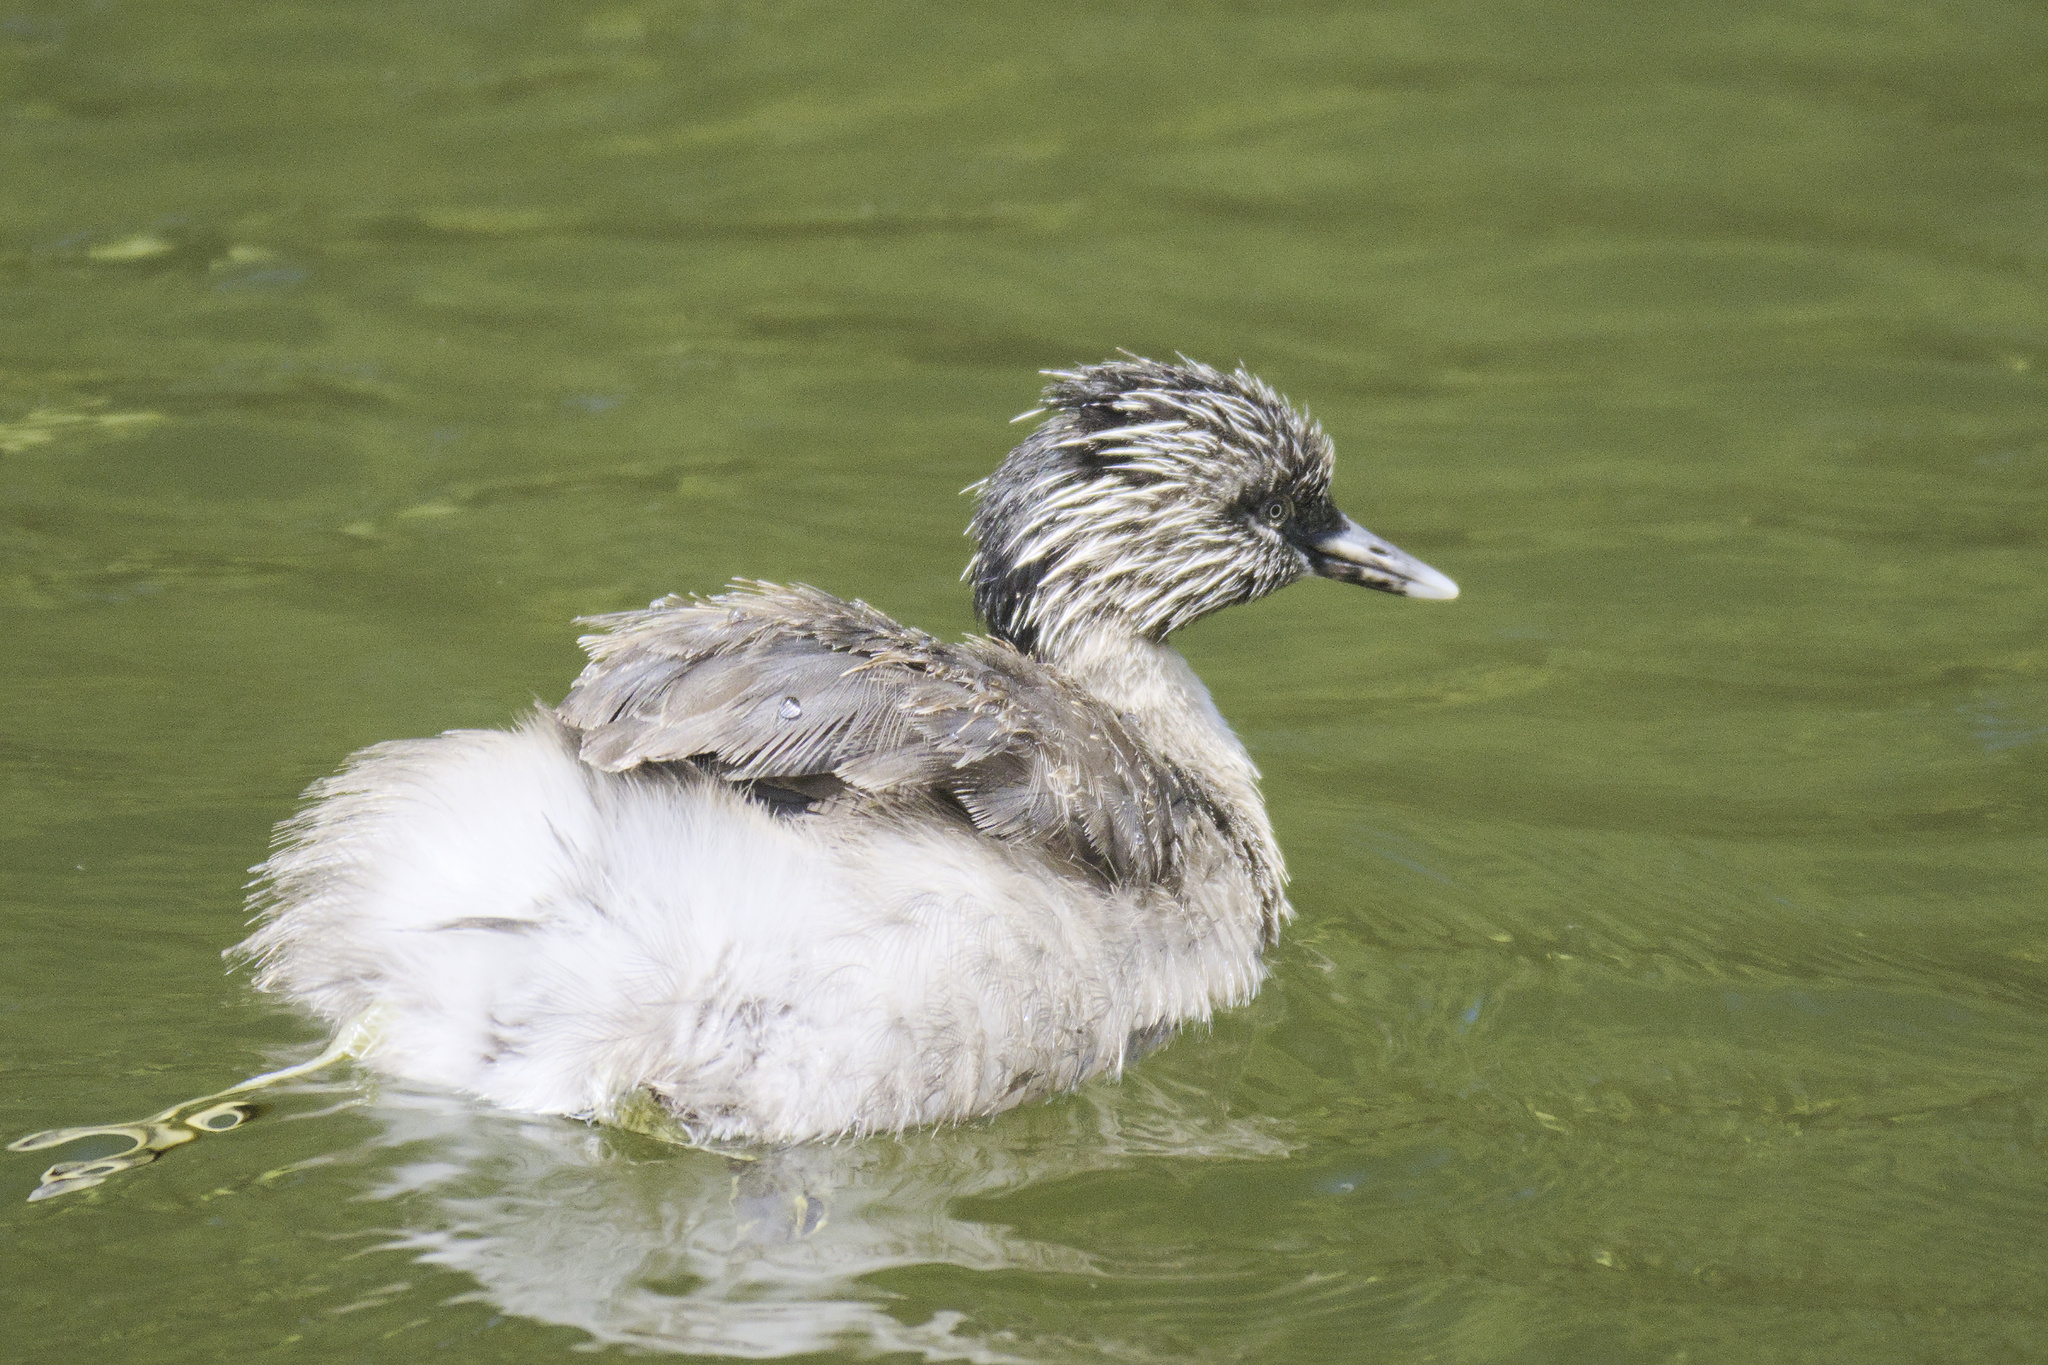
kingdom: Animalia
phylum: Chordata
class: Aves
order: Podicipediformes
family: Podicipedidae
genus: Poliocephalus
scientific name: Poliocephalus poliocephalus
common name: Hoary-headed grebe
